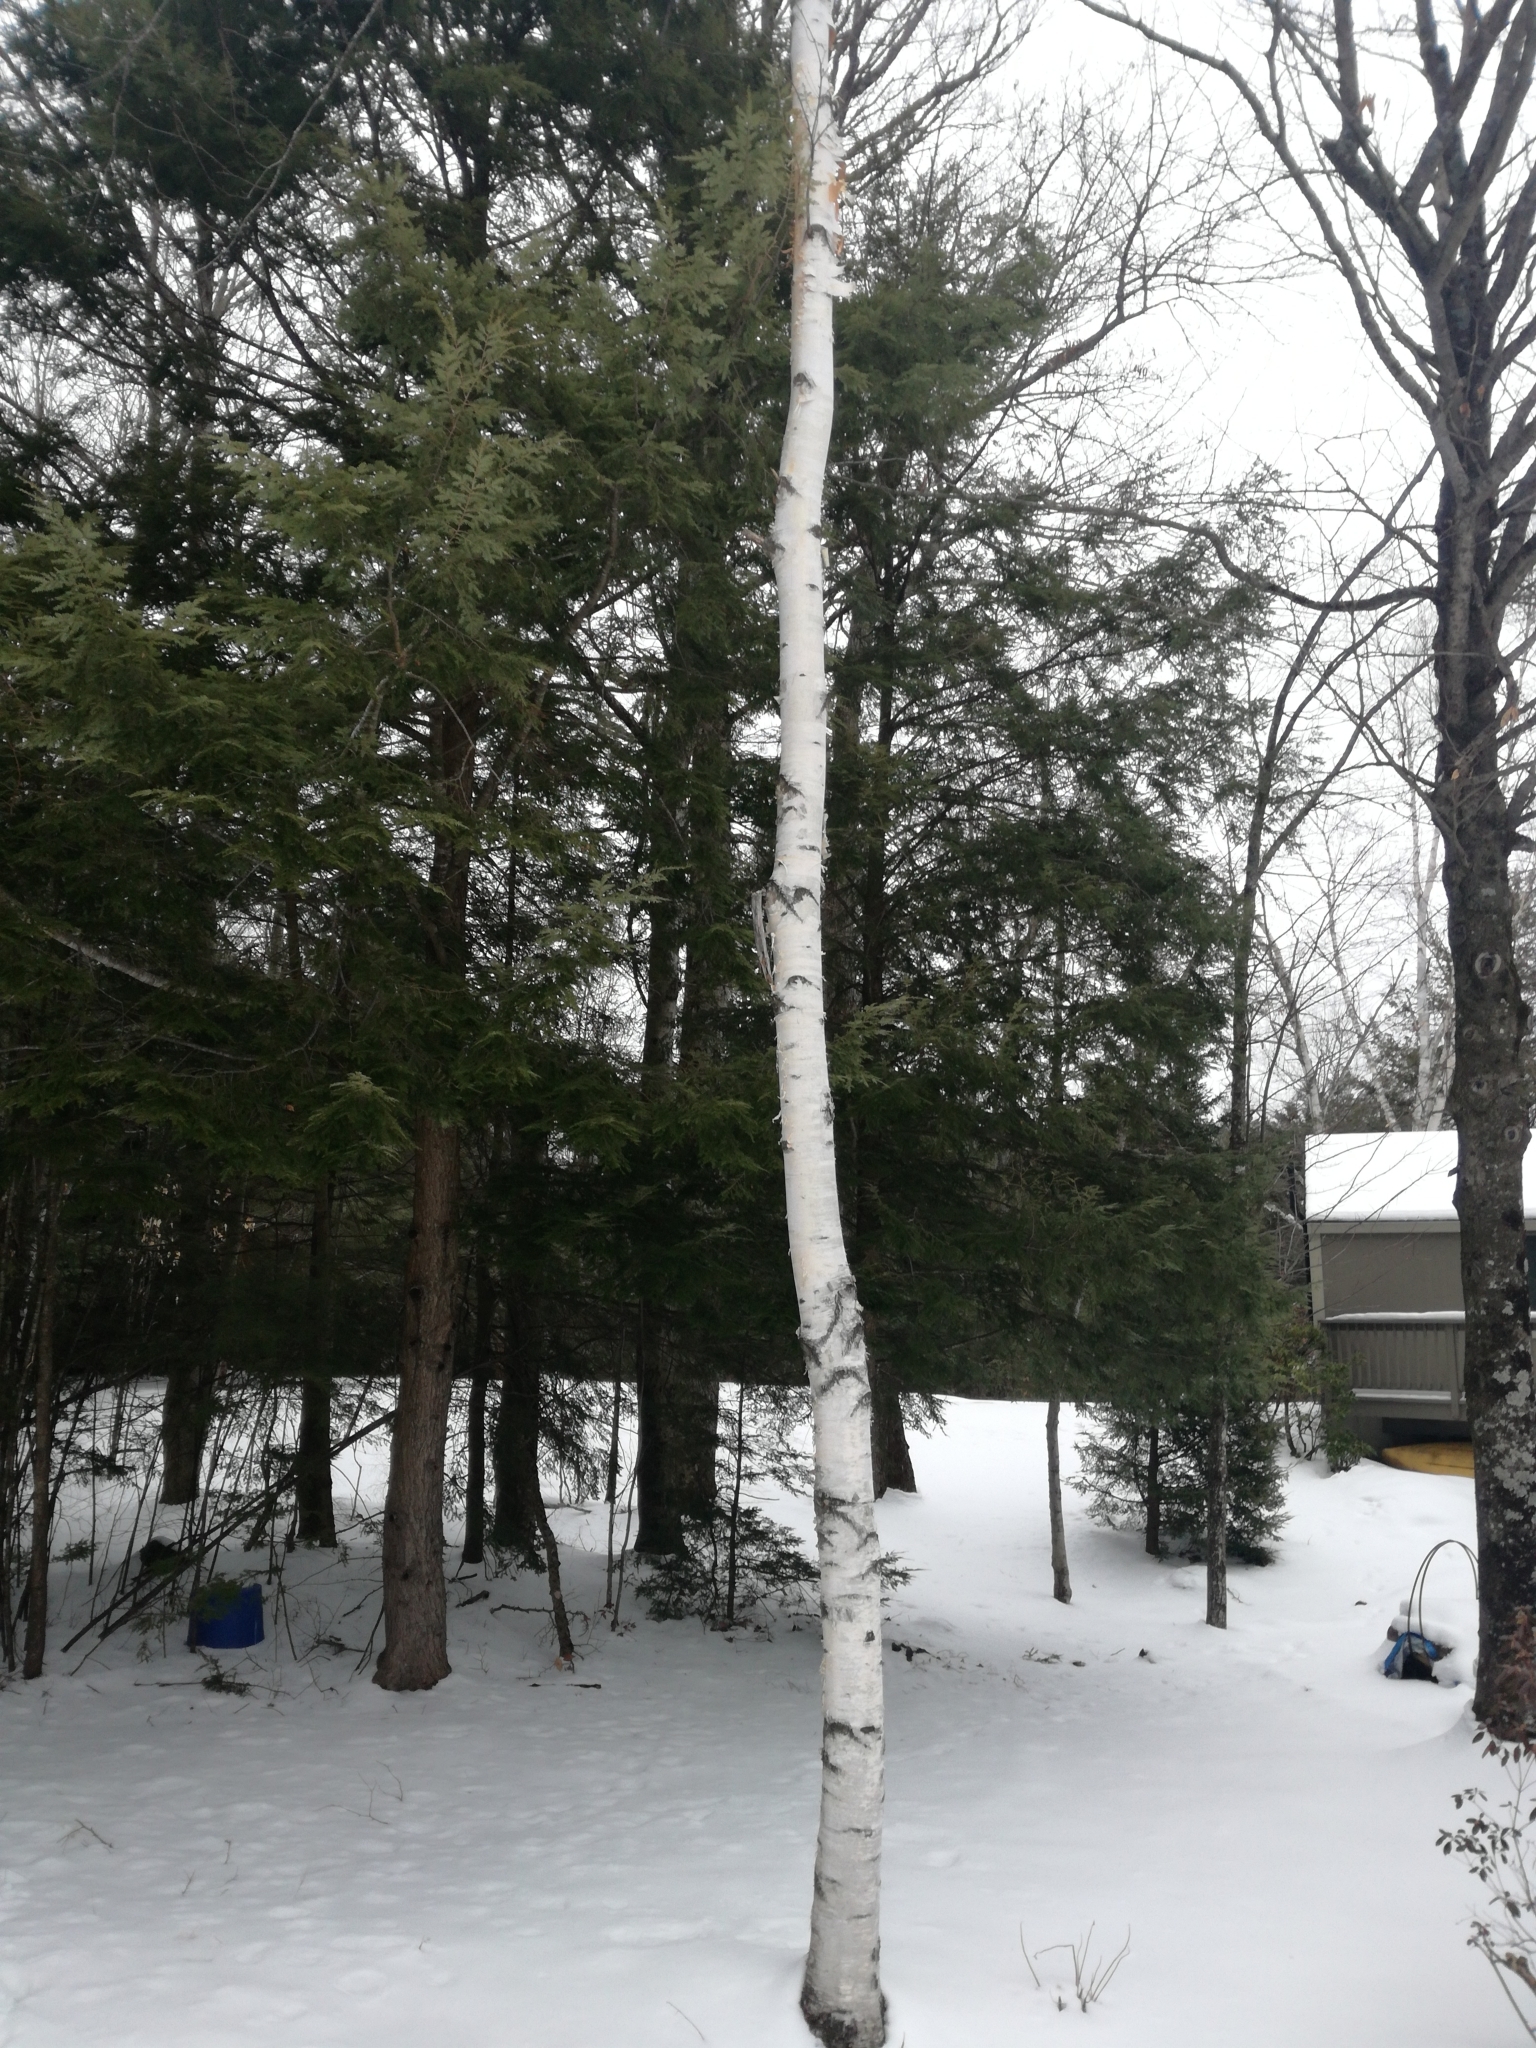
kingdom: Plantae
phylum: Tracheophyta
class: Magnoliopsida
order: Fagales
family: Betulaceae
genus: Betula
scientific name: Betula papyrifera
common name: Paper birch
